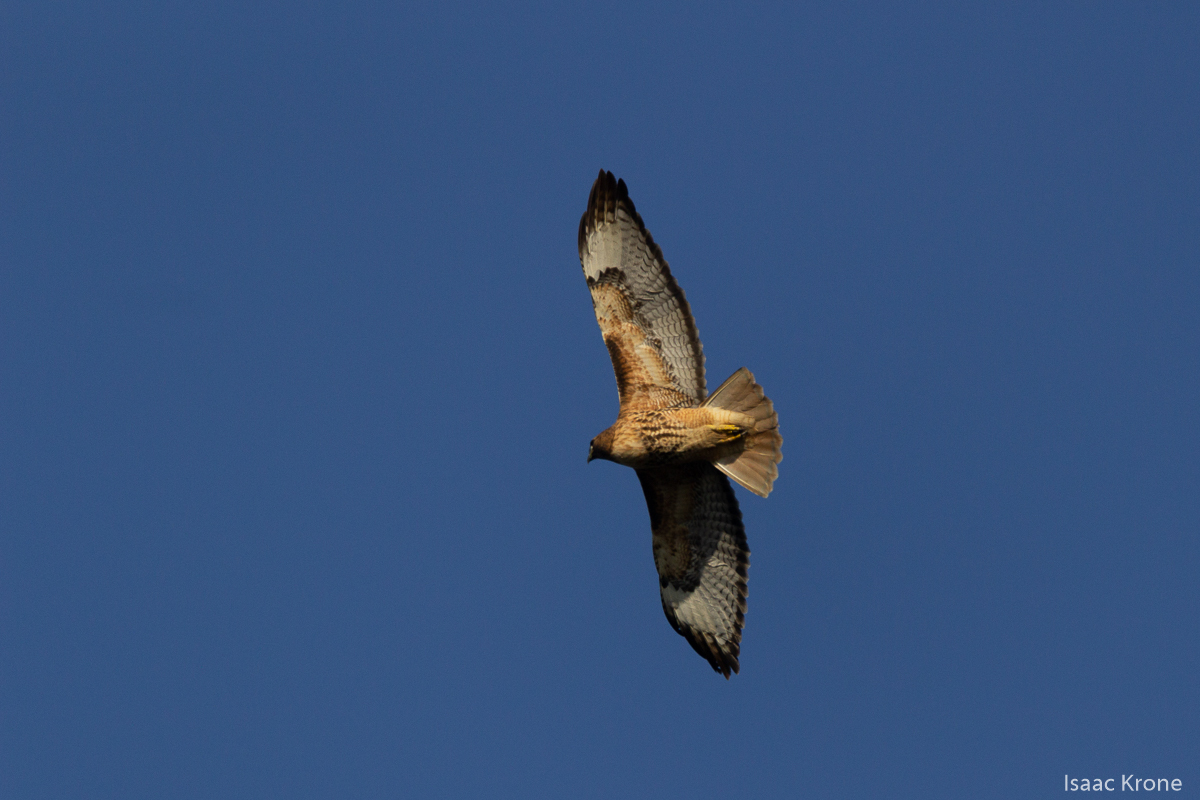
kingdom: Animalia
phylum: Chordata
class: Aves
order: Accipitriformes
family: Accipitridae
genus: Buteo
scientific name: Buteo jamaicensis
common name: Red-tailed hawk
